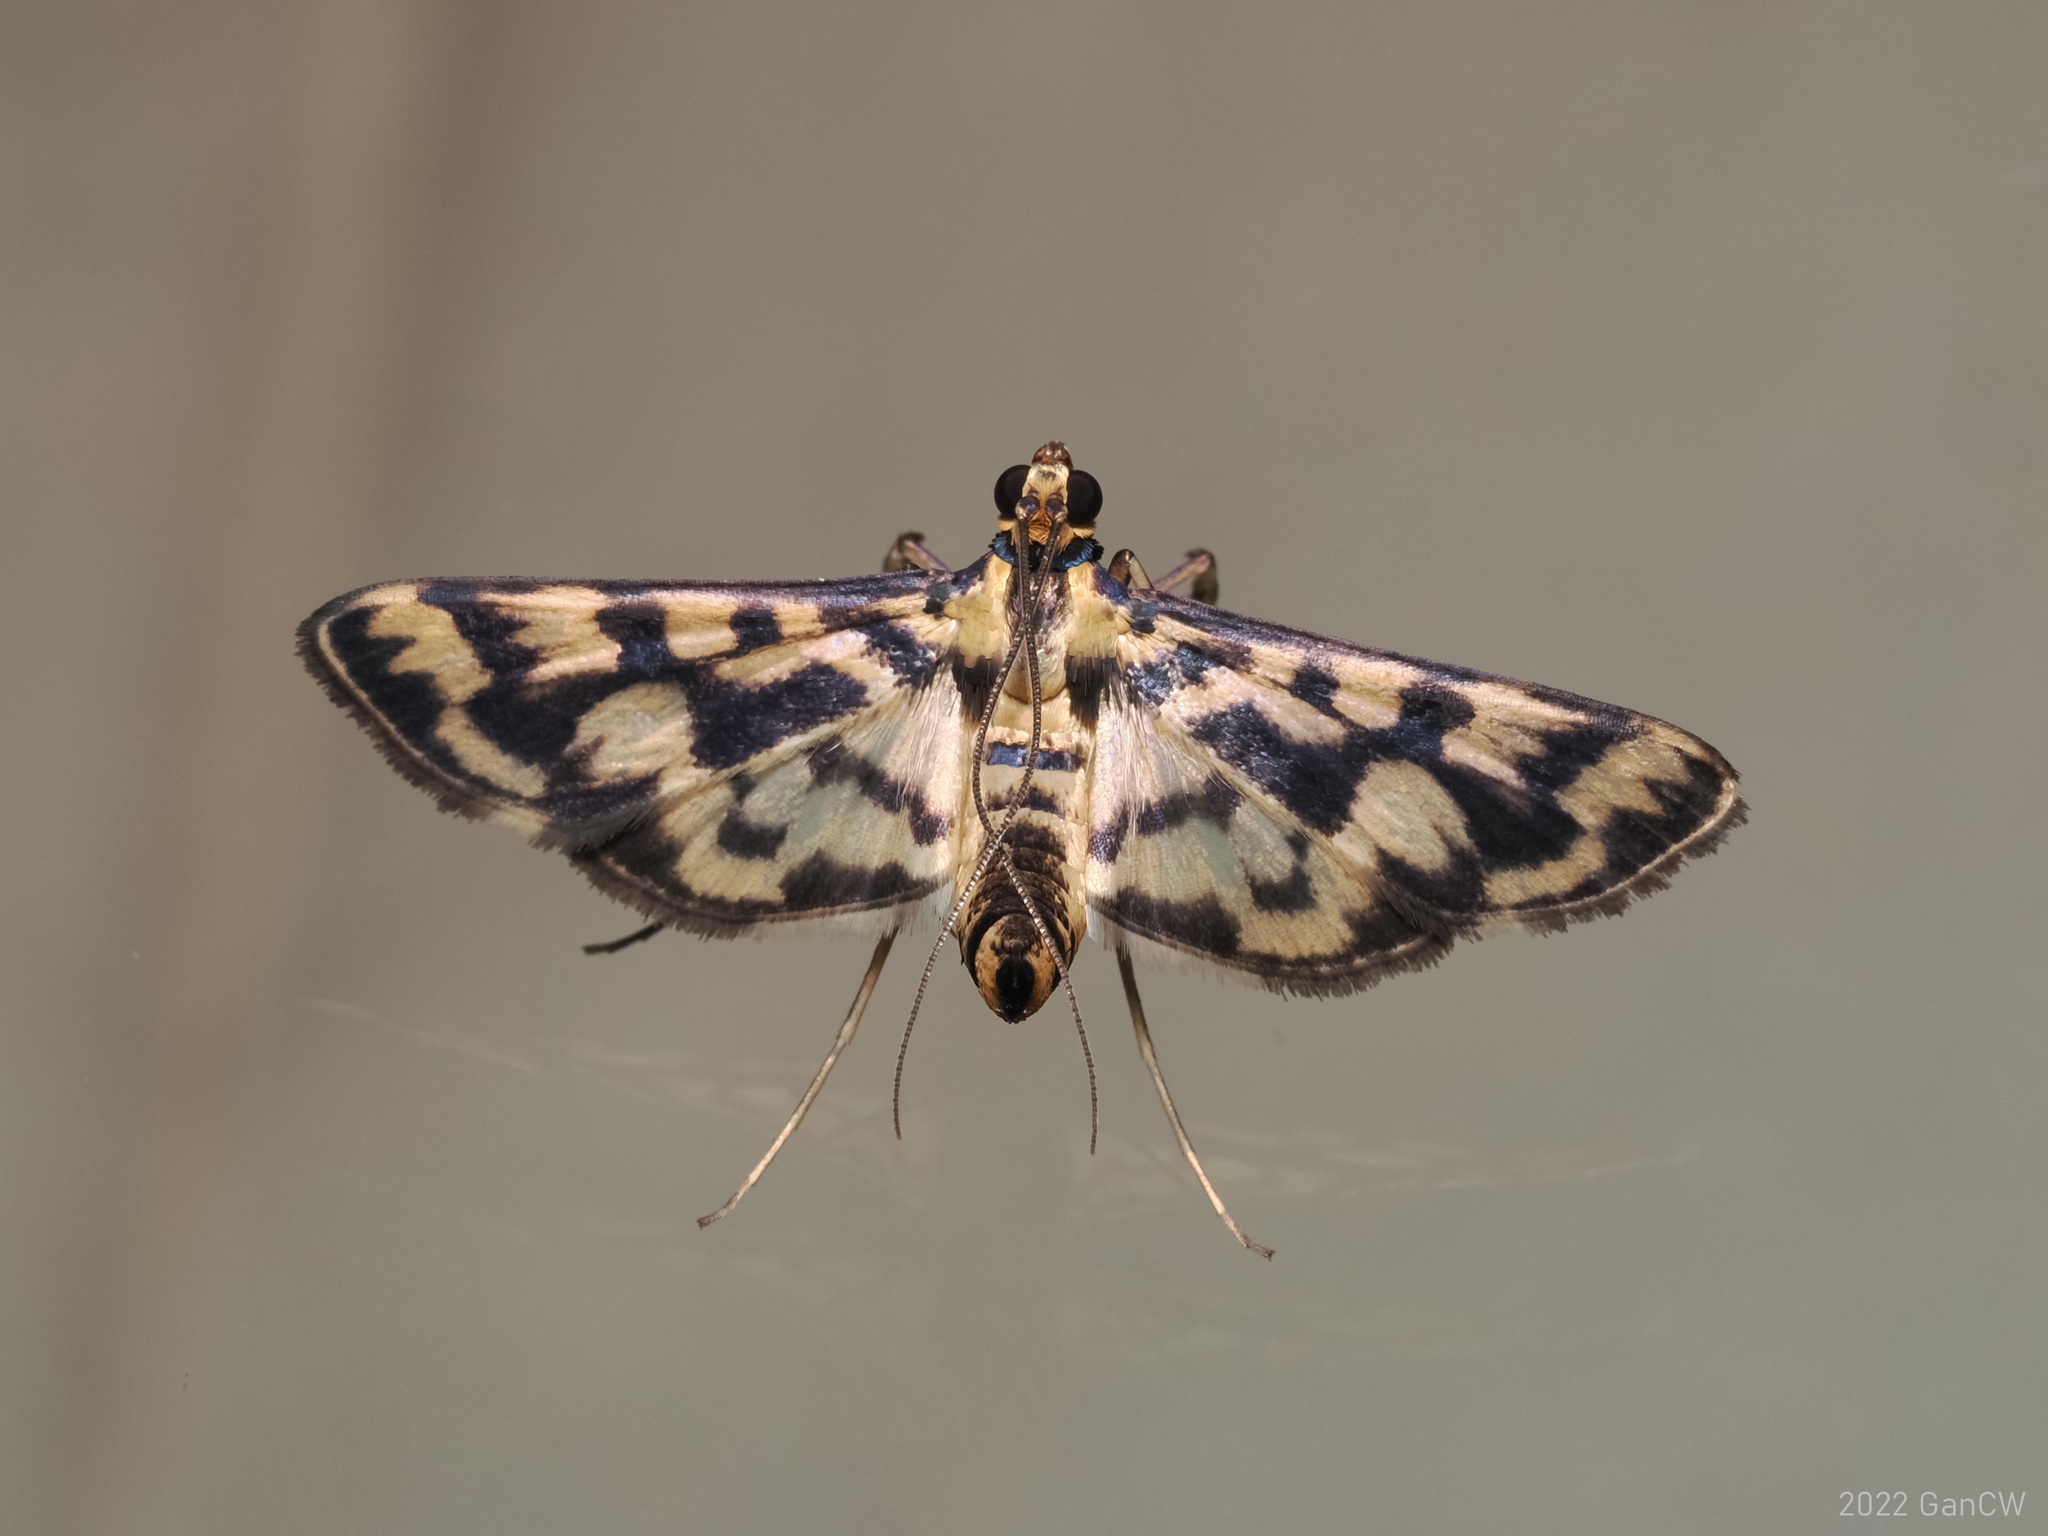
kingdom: Animalia
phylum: Arthropoda
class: Insecta
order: Lepidoptera
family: Crambidae
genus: Rhimphalea
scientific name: Rhimphalea heranialis
